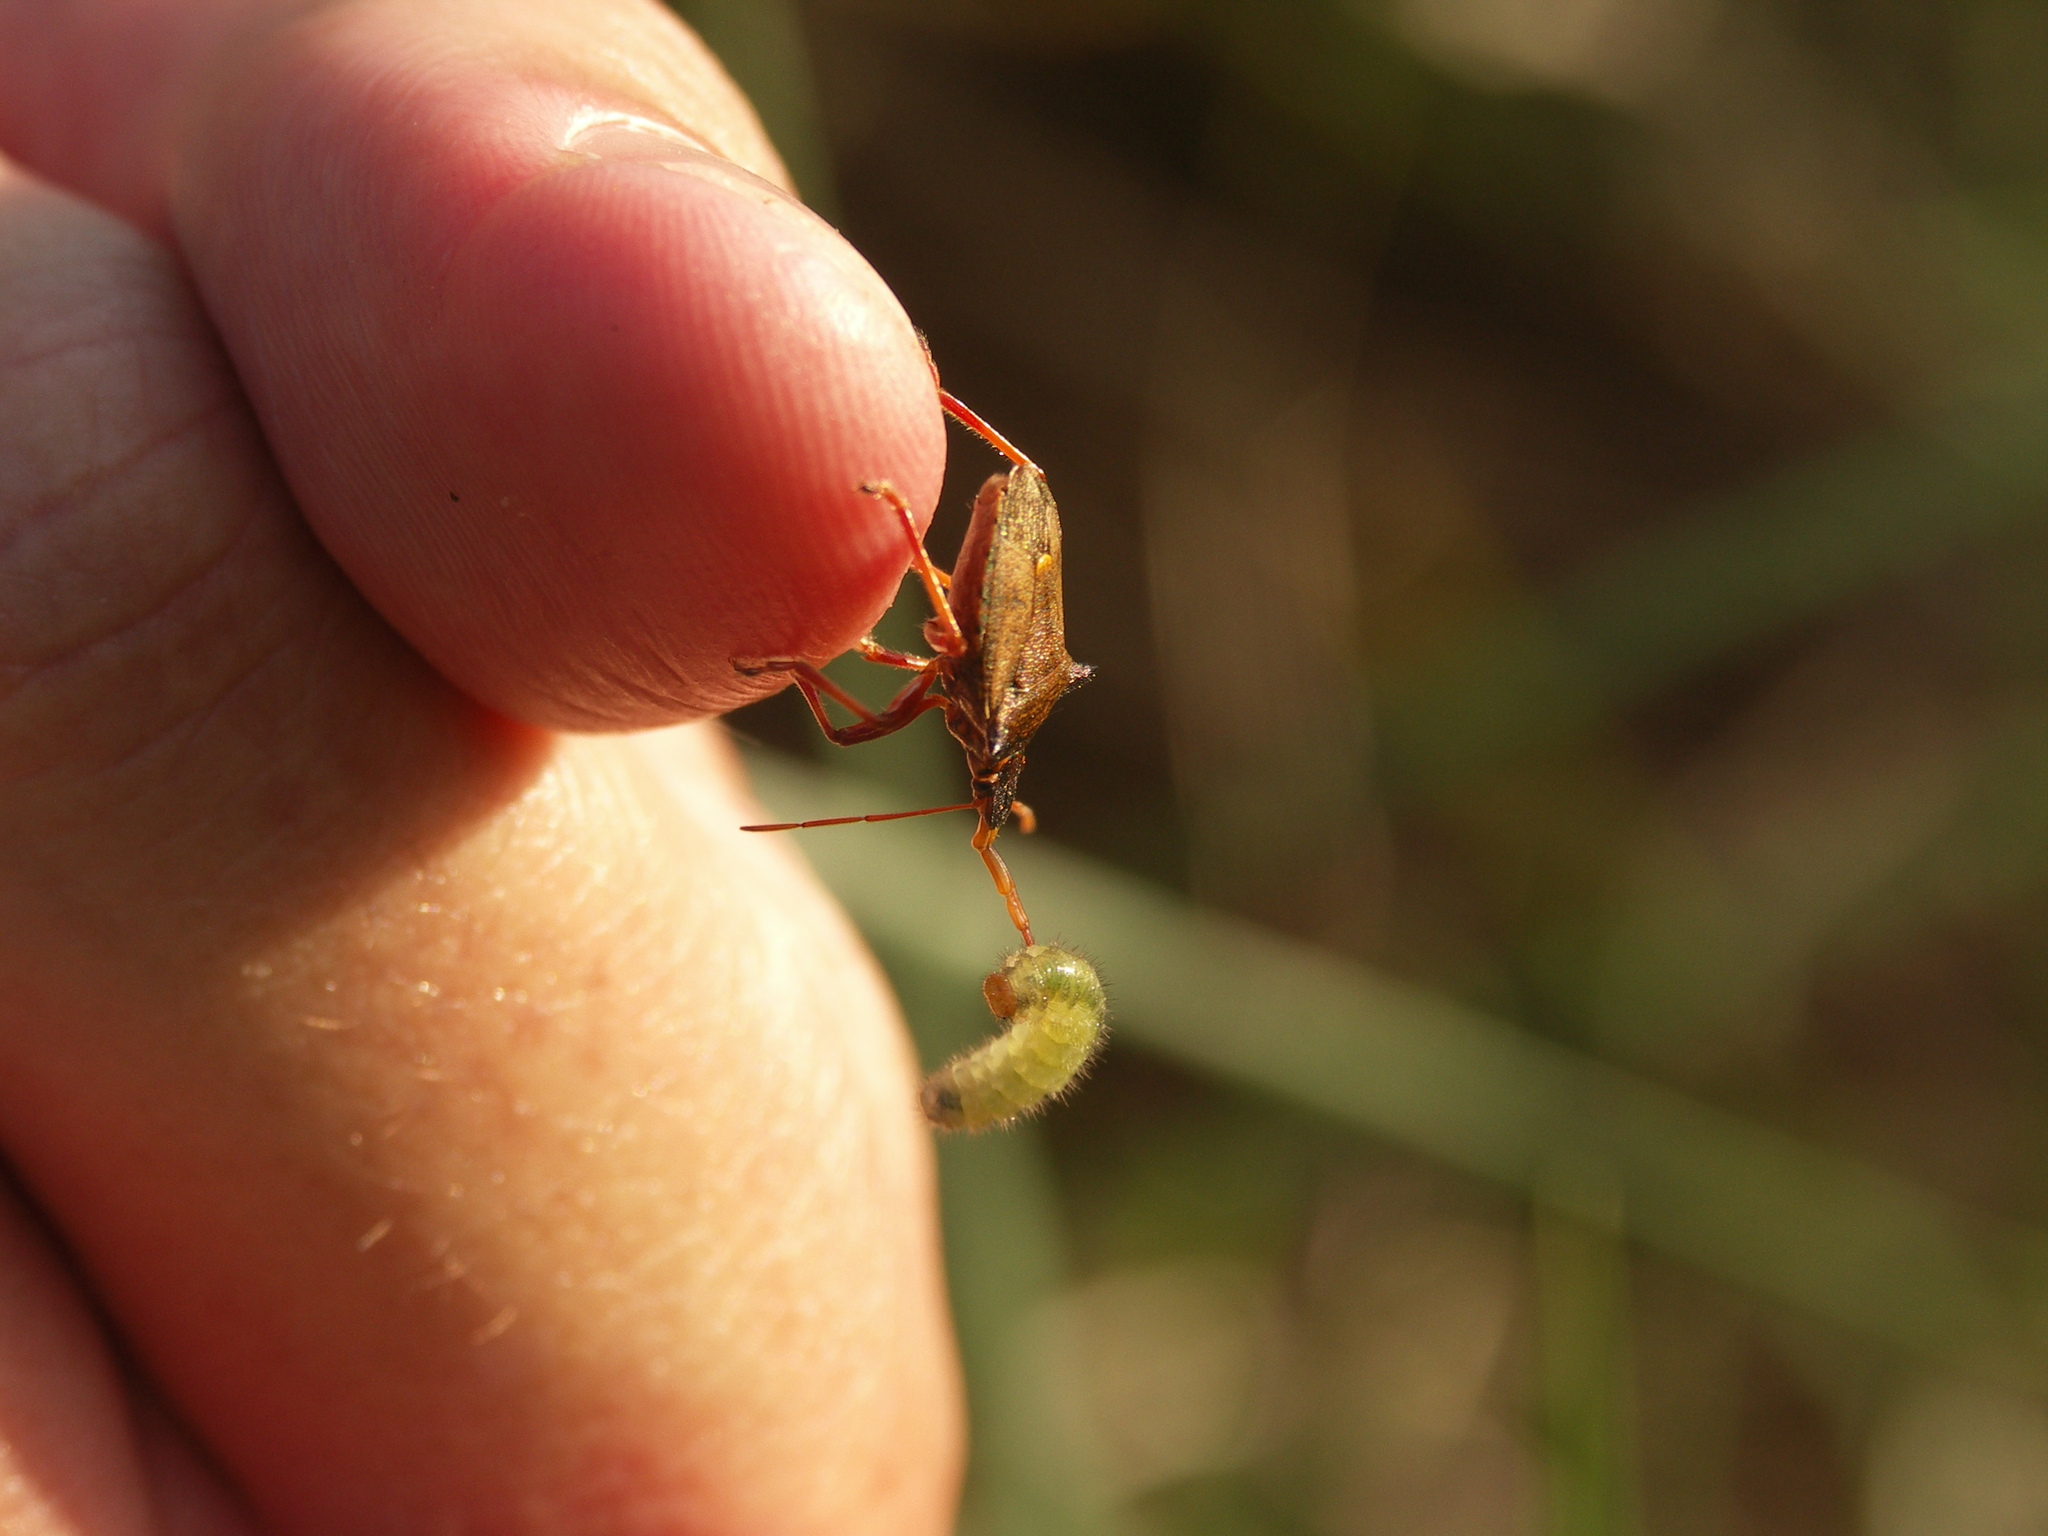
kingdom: Animalia
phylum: Arthropoda
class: Insecta
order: Hemiptera
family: Pentatomidae
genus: Picromerus
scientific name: Picromerus bidens
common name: Spiked shieldbug
